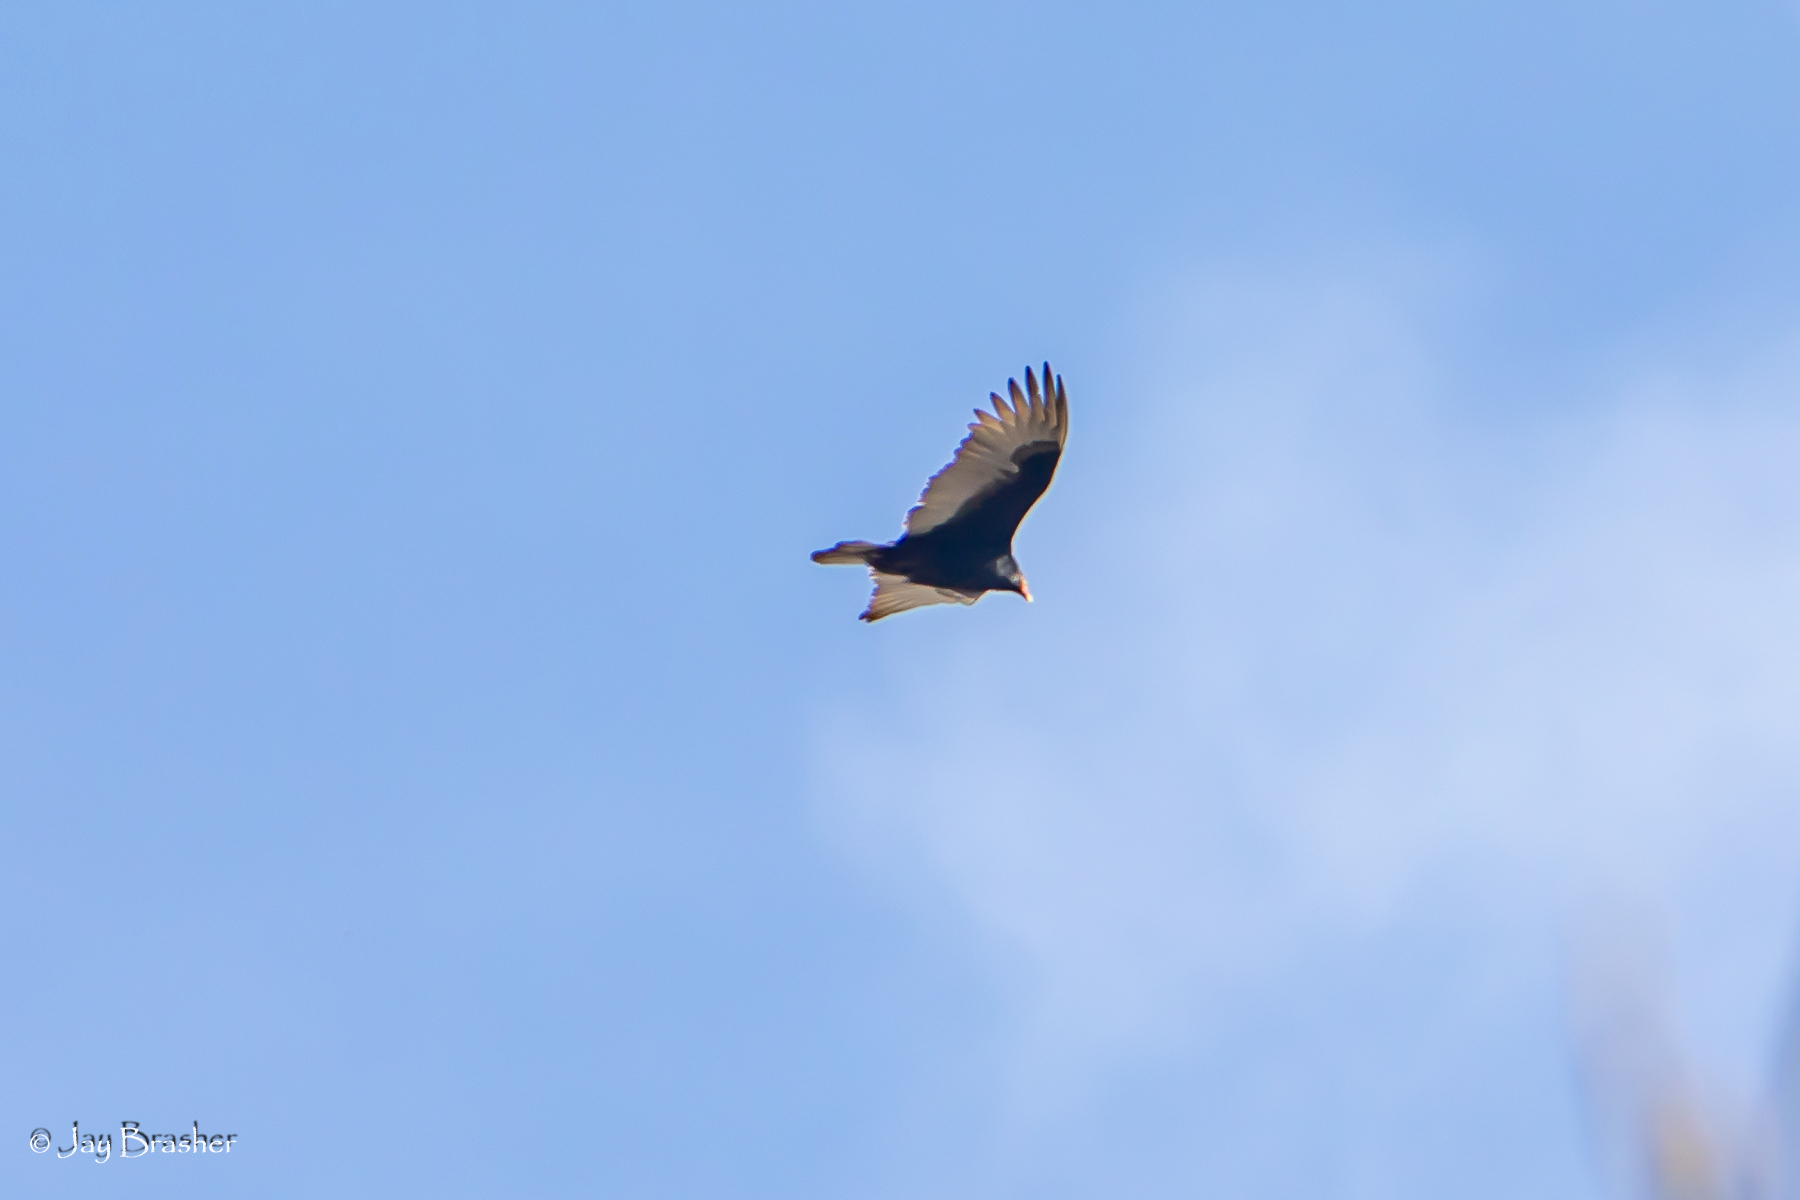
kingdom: Animalia
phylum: Chordata
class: Aves
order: Accipitriformes
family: Cathartidae
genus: Cathartes
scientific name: Cathartes aura
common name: Turkey vulture
